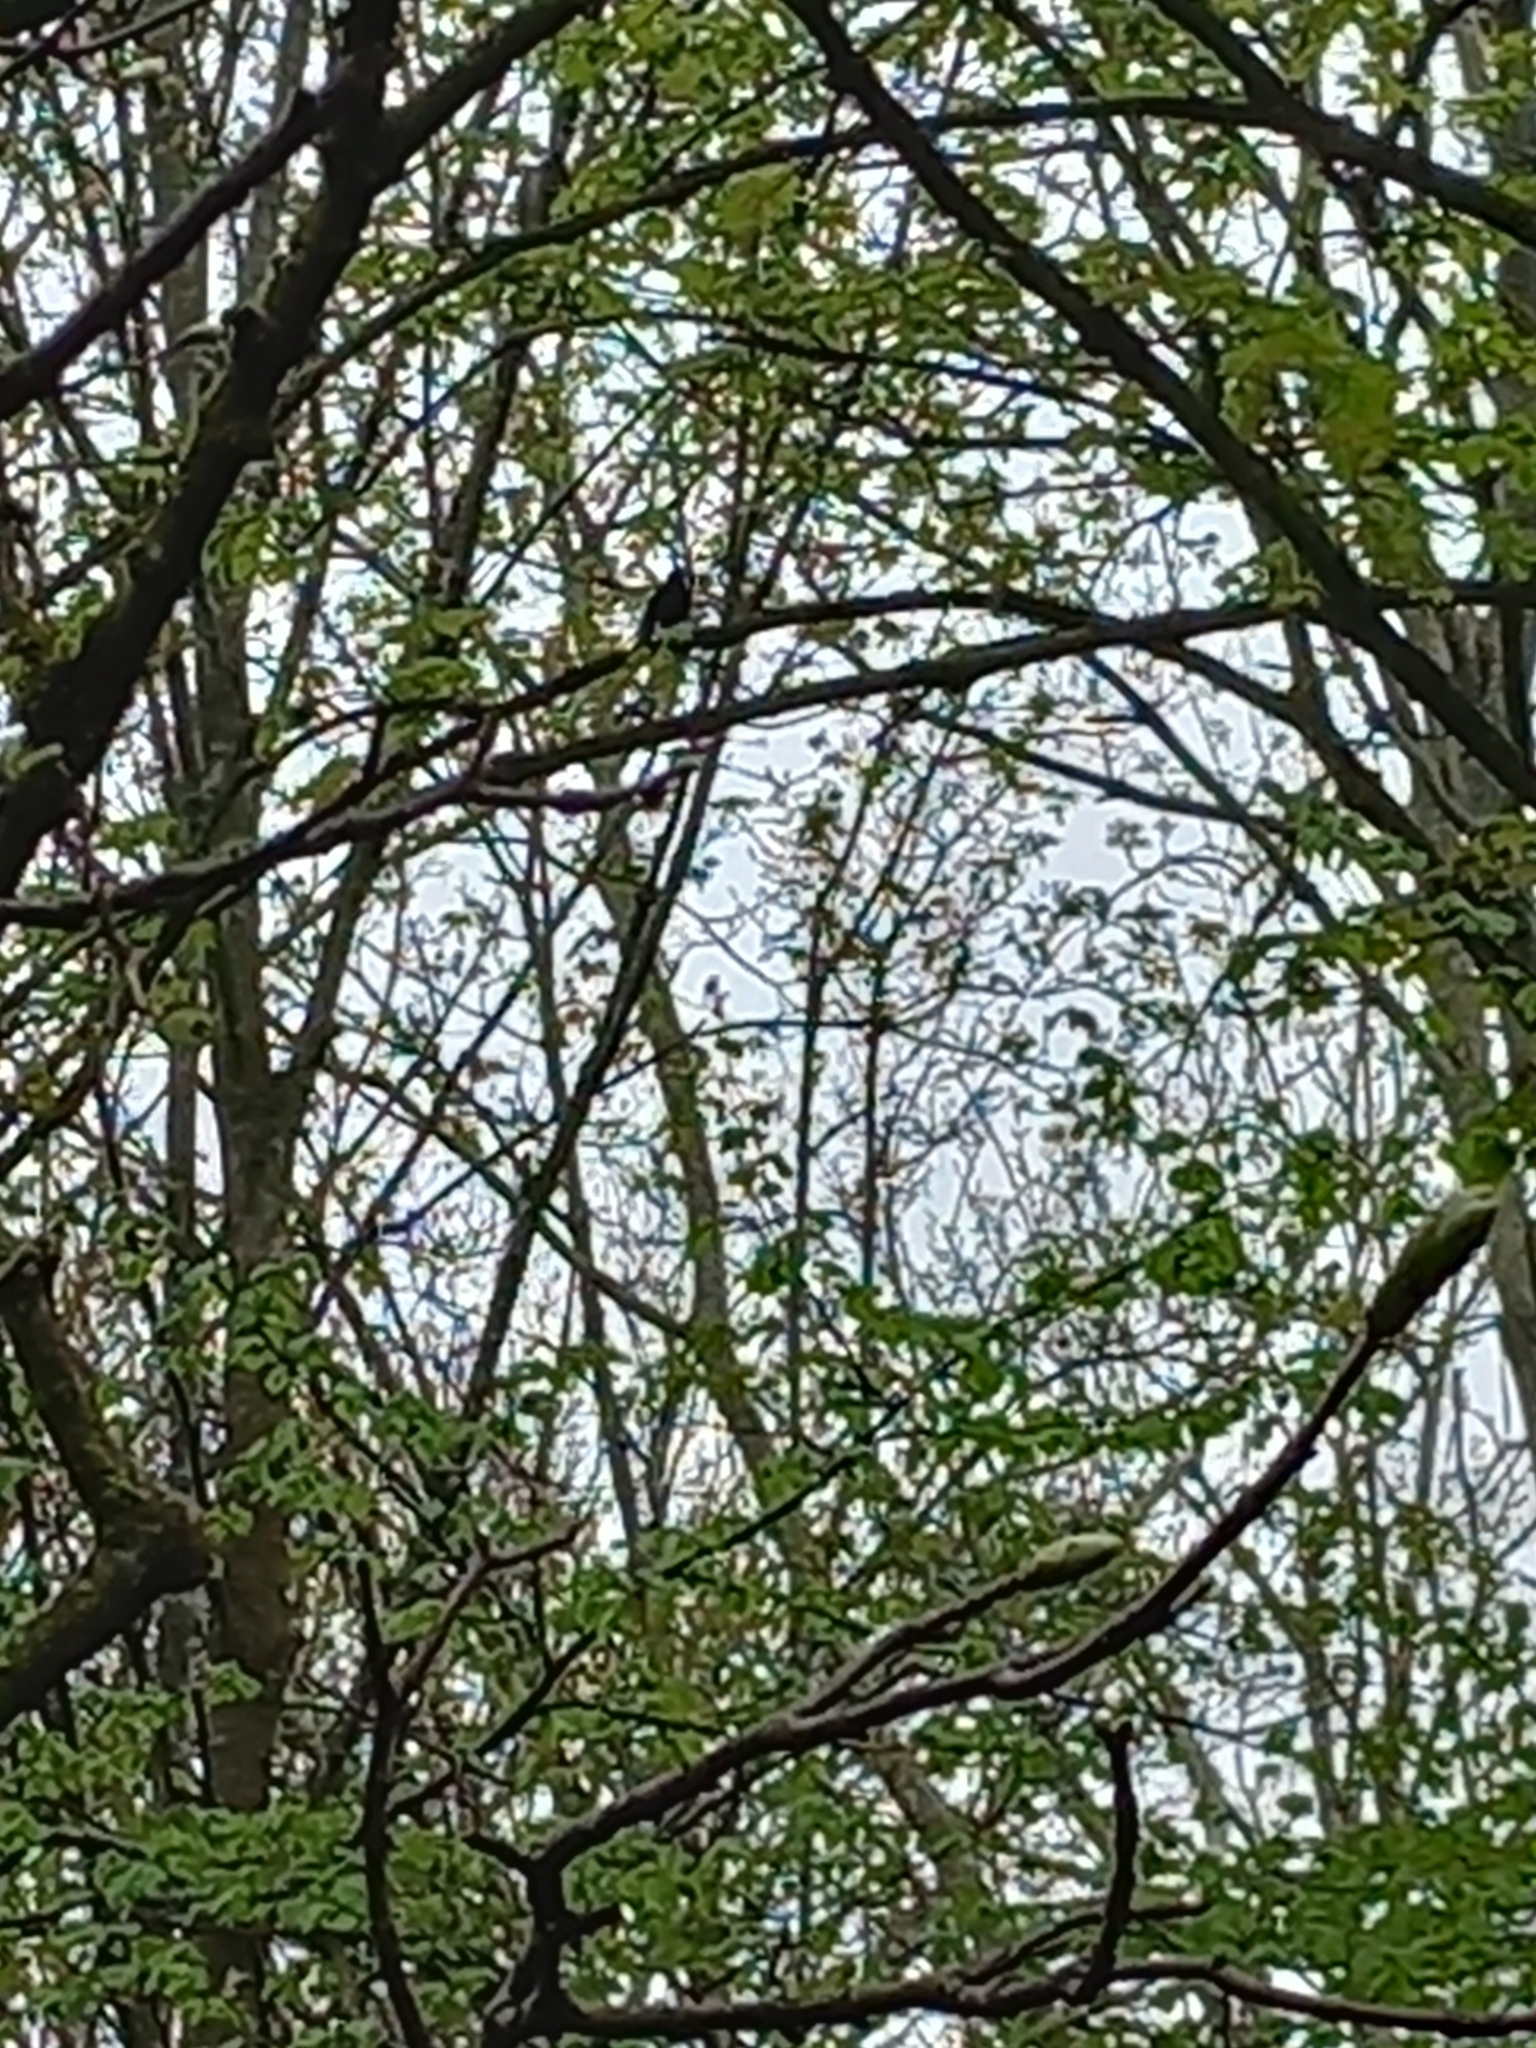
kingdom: Animalia
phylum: Chordata
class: Aves
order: Passeriformes
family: Turdidae
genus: Turdus
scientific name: Turdus merula
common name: Common blackbird
